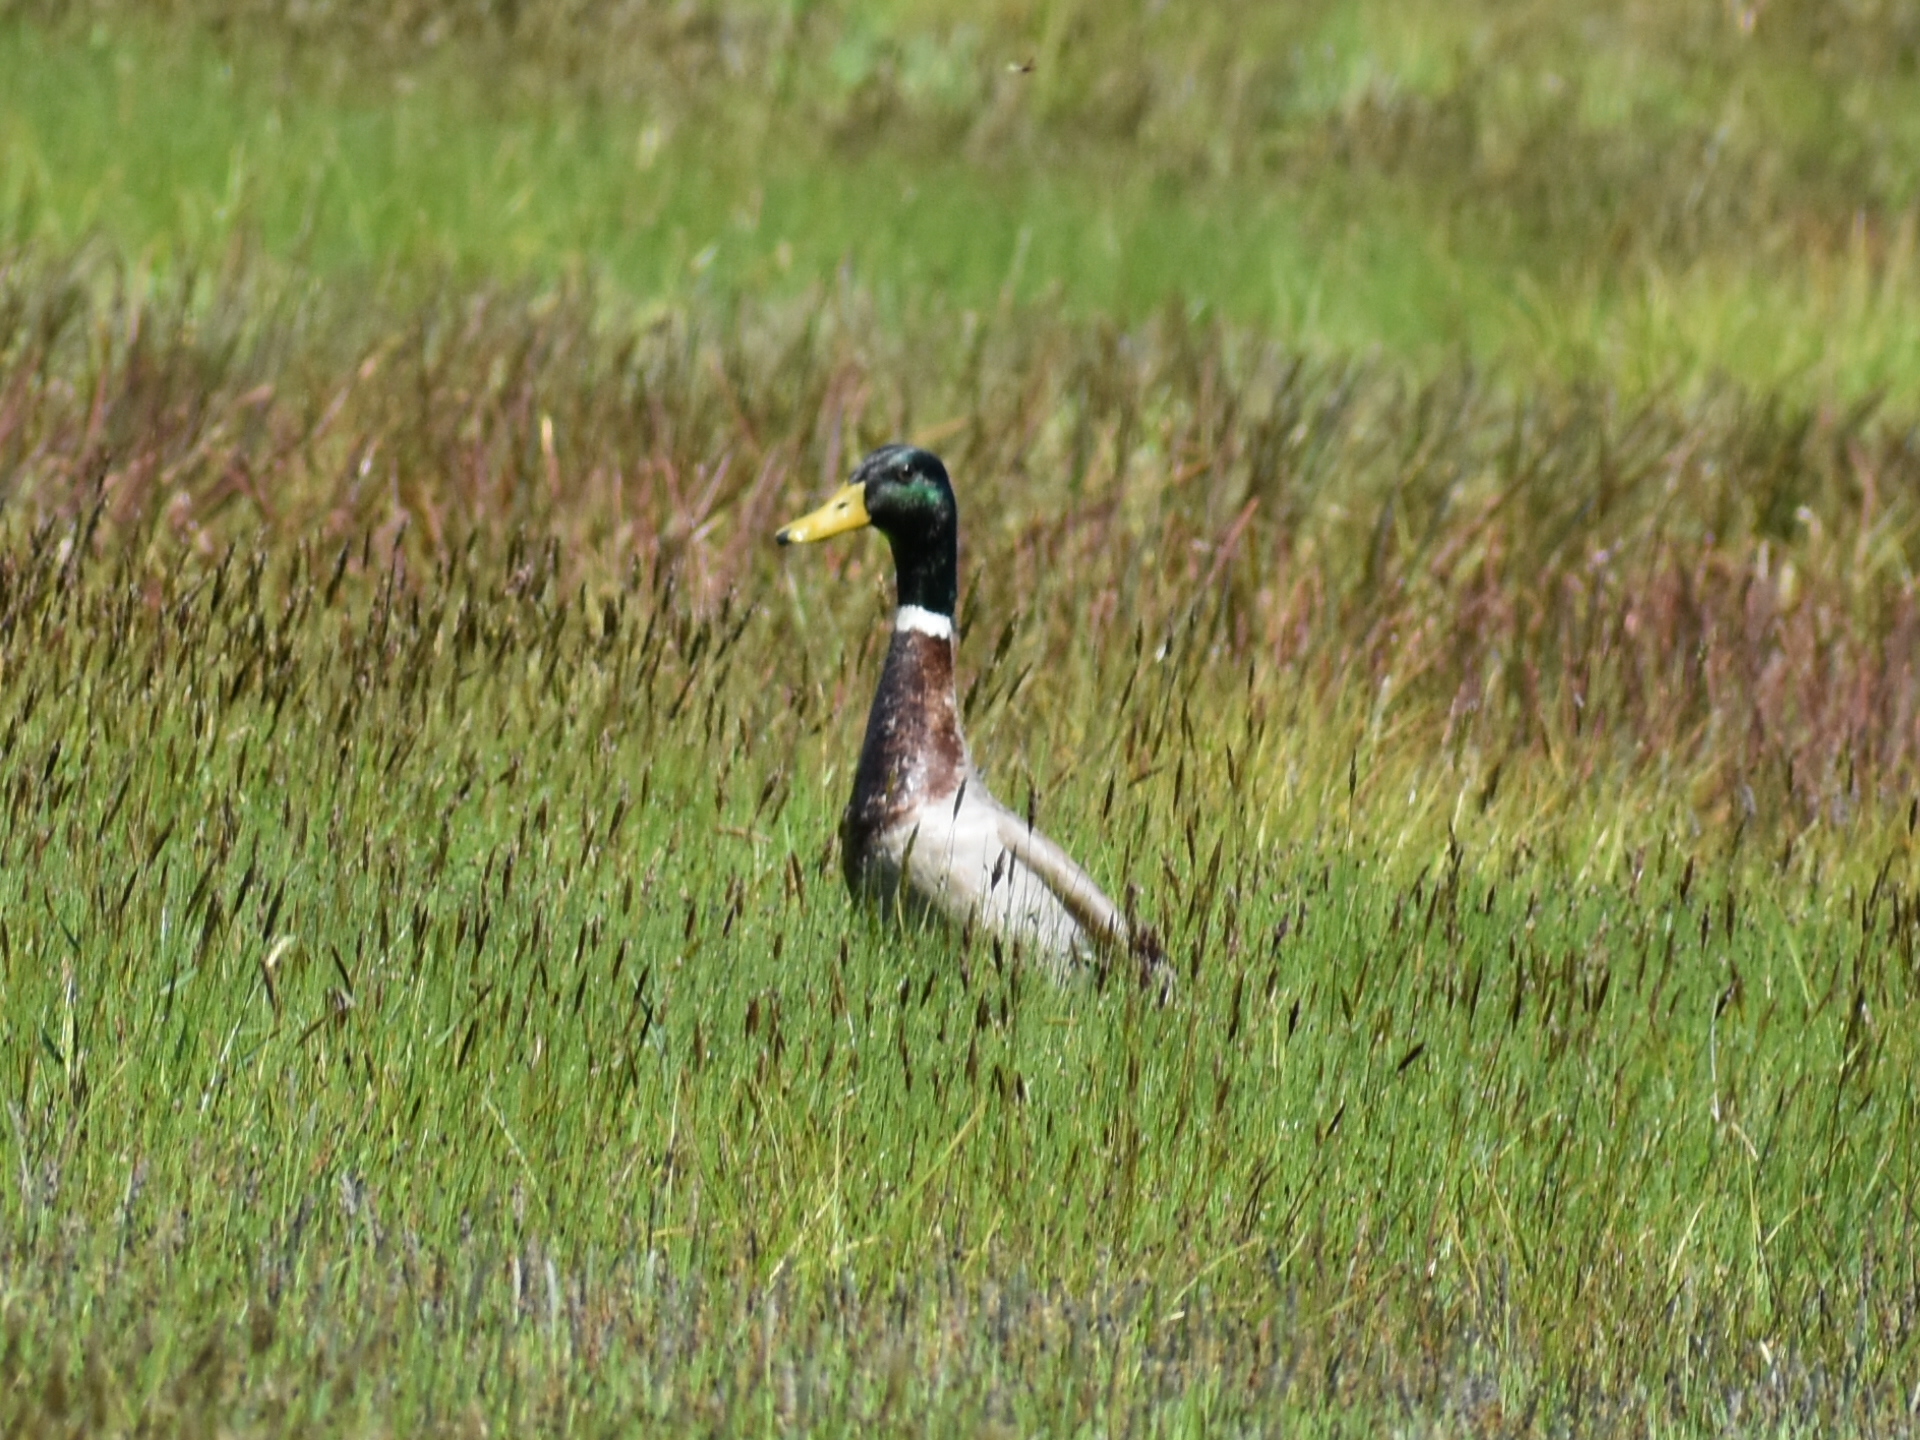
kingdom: Animalia
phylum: Chordata
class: Aves
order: Anseriformes
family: Anatidae
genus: Anas
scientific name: Anas platyrhynchos
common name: Mallard
